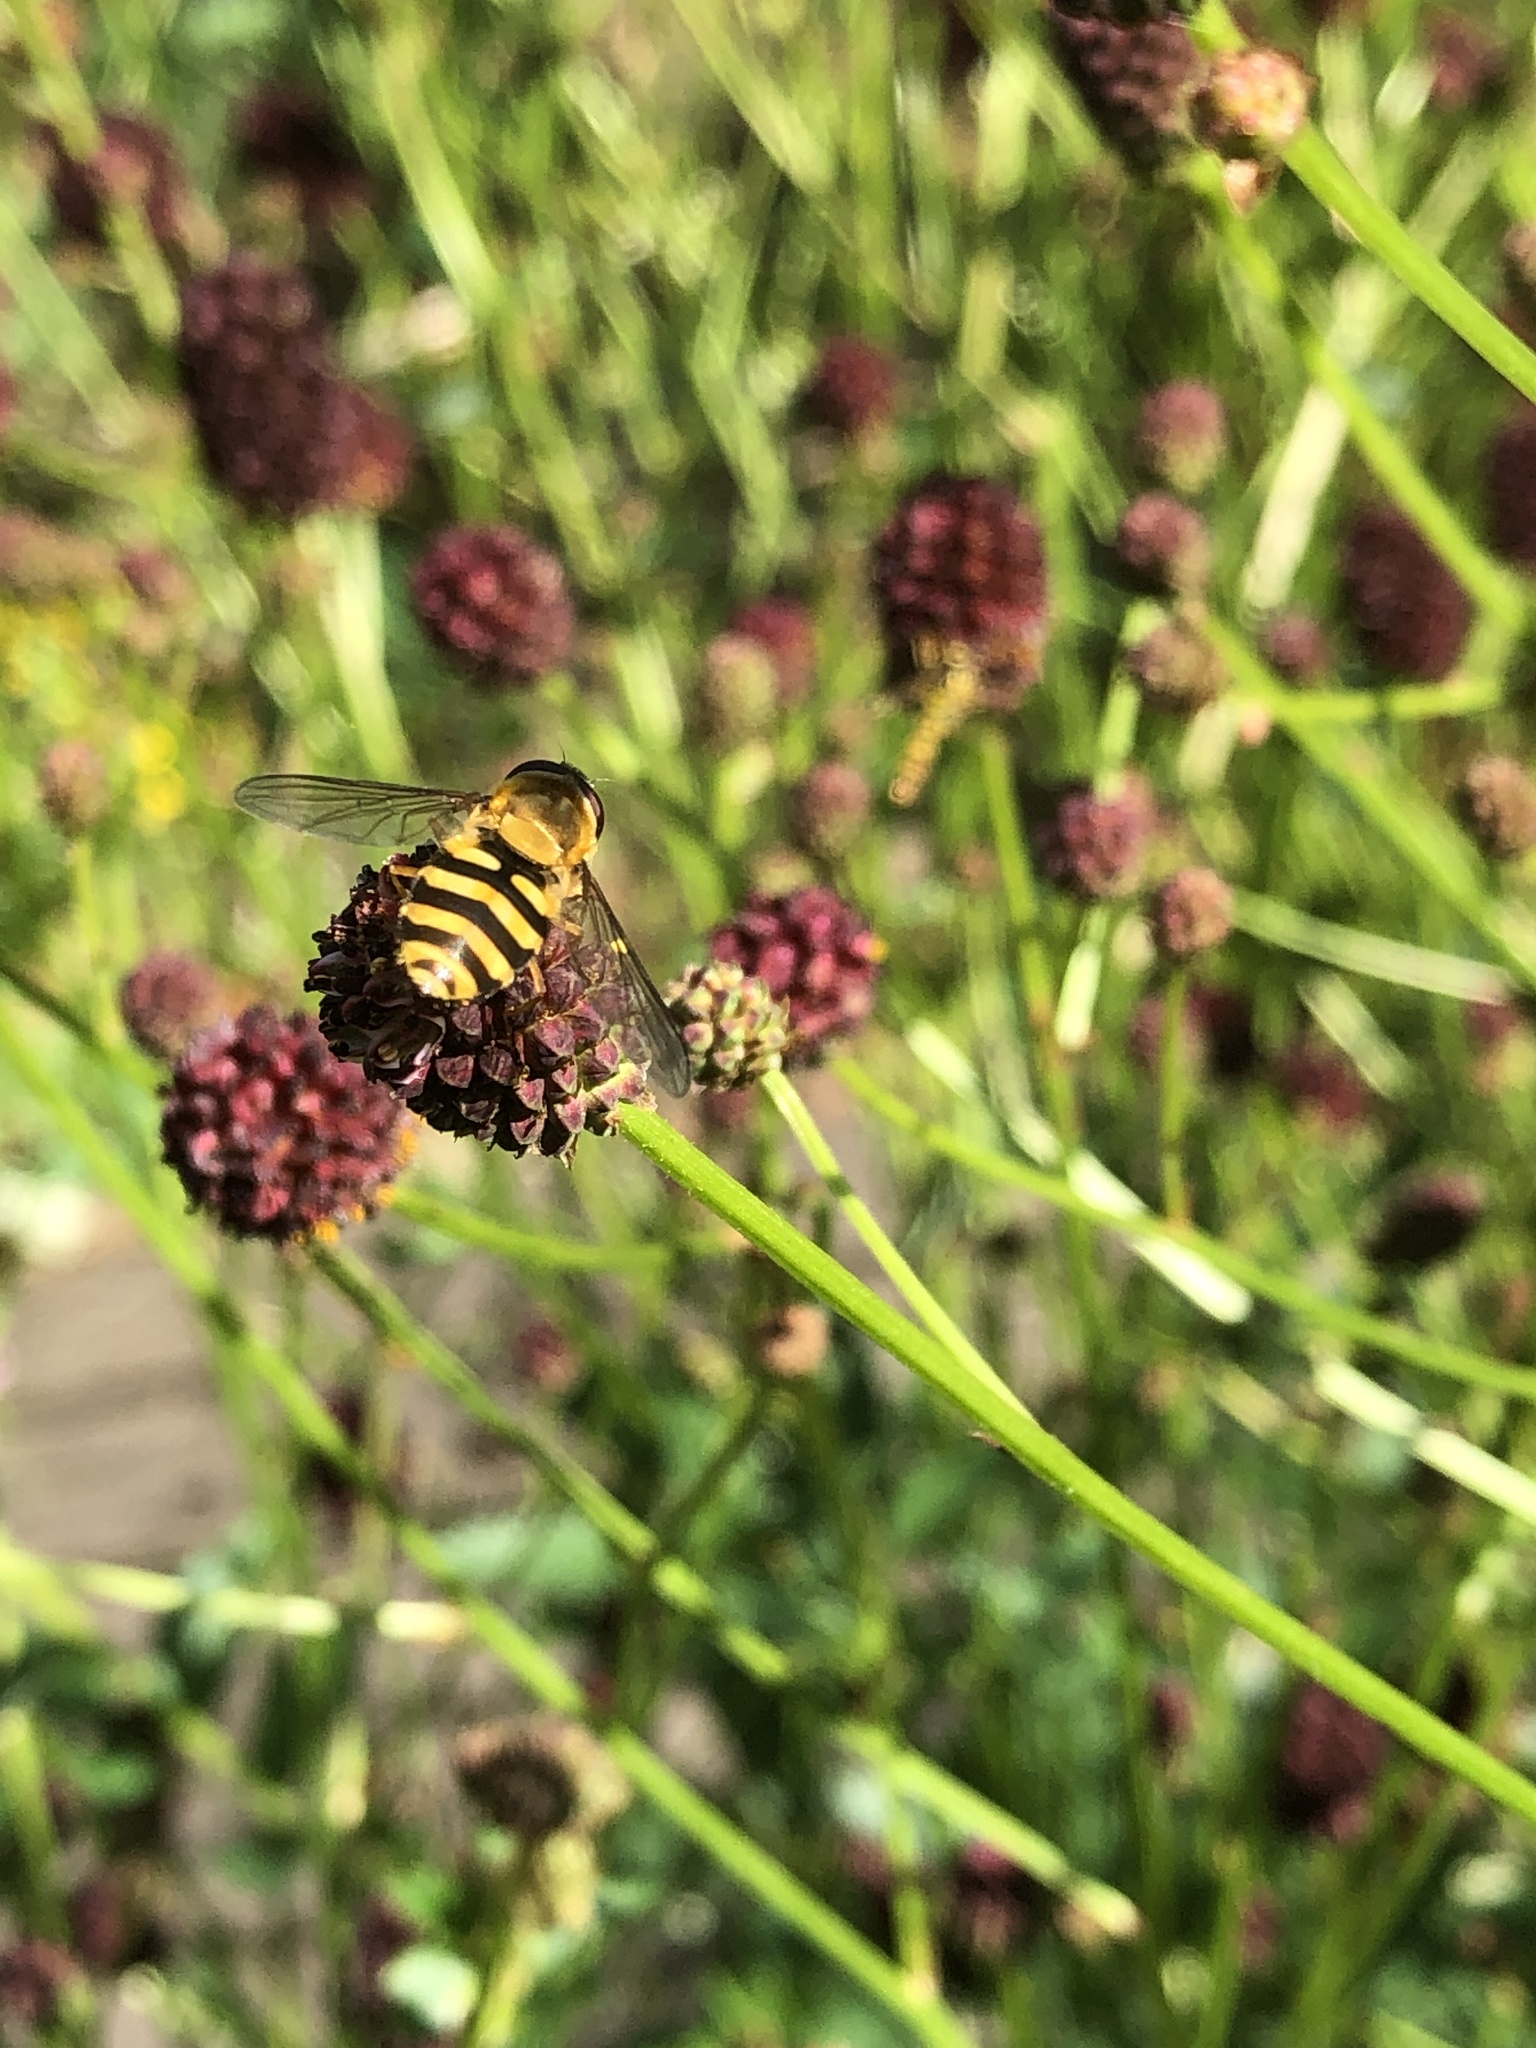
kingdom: Animalia
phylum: Arthropoda
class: Insecta
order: Diptera
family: Syrphidae
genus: Syrphus
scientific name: Syrphus ribesii
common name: Common flower fly
